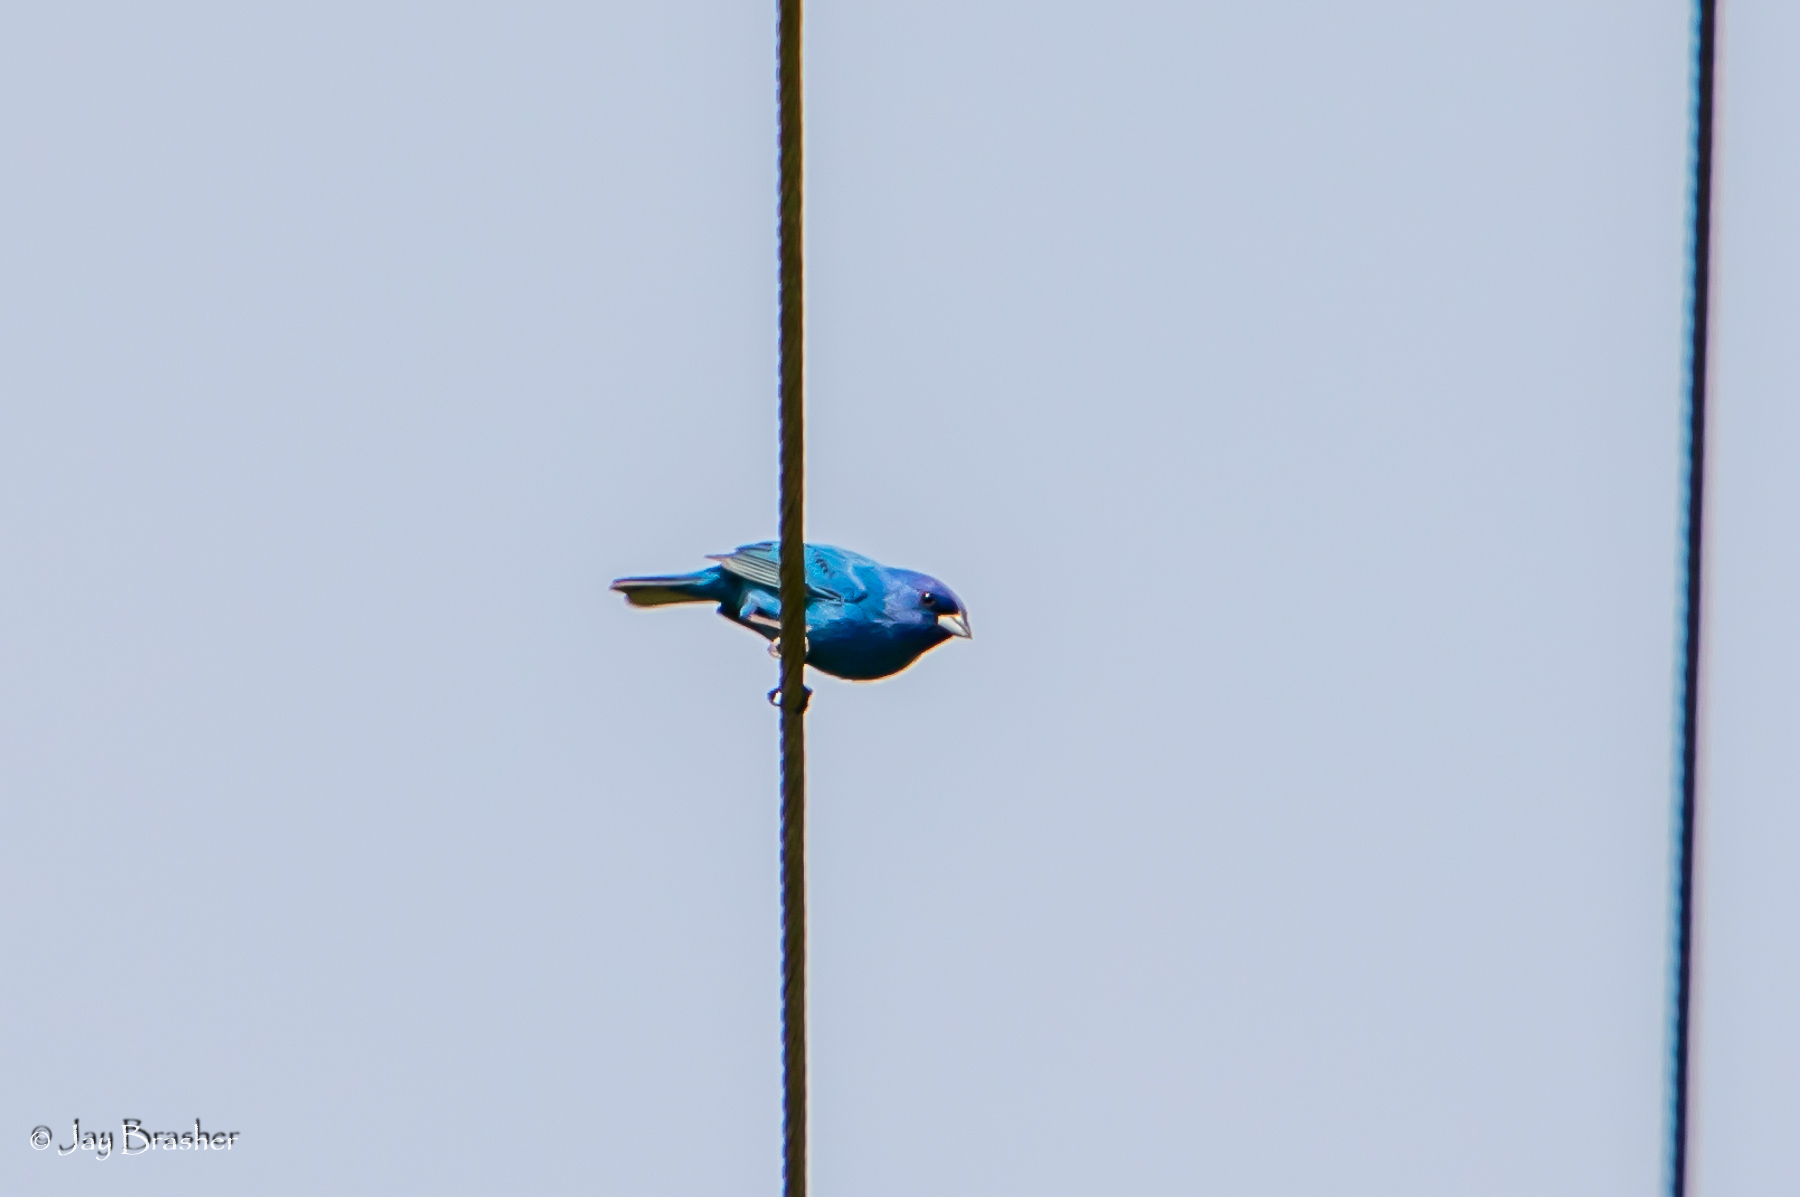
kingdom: Animalia
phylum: Chordata
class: Aves
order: Passeriformes
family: Cardinalidae
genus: Passerina
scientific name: Passerina cyanea
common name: Indigo bunting
